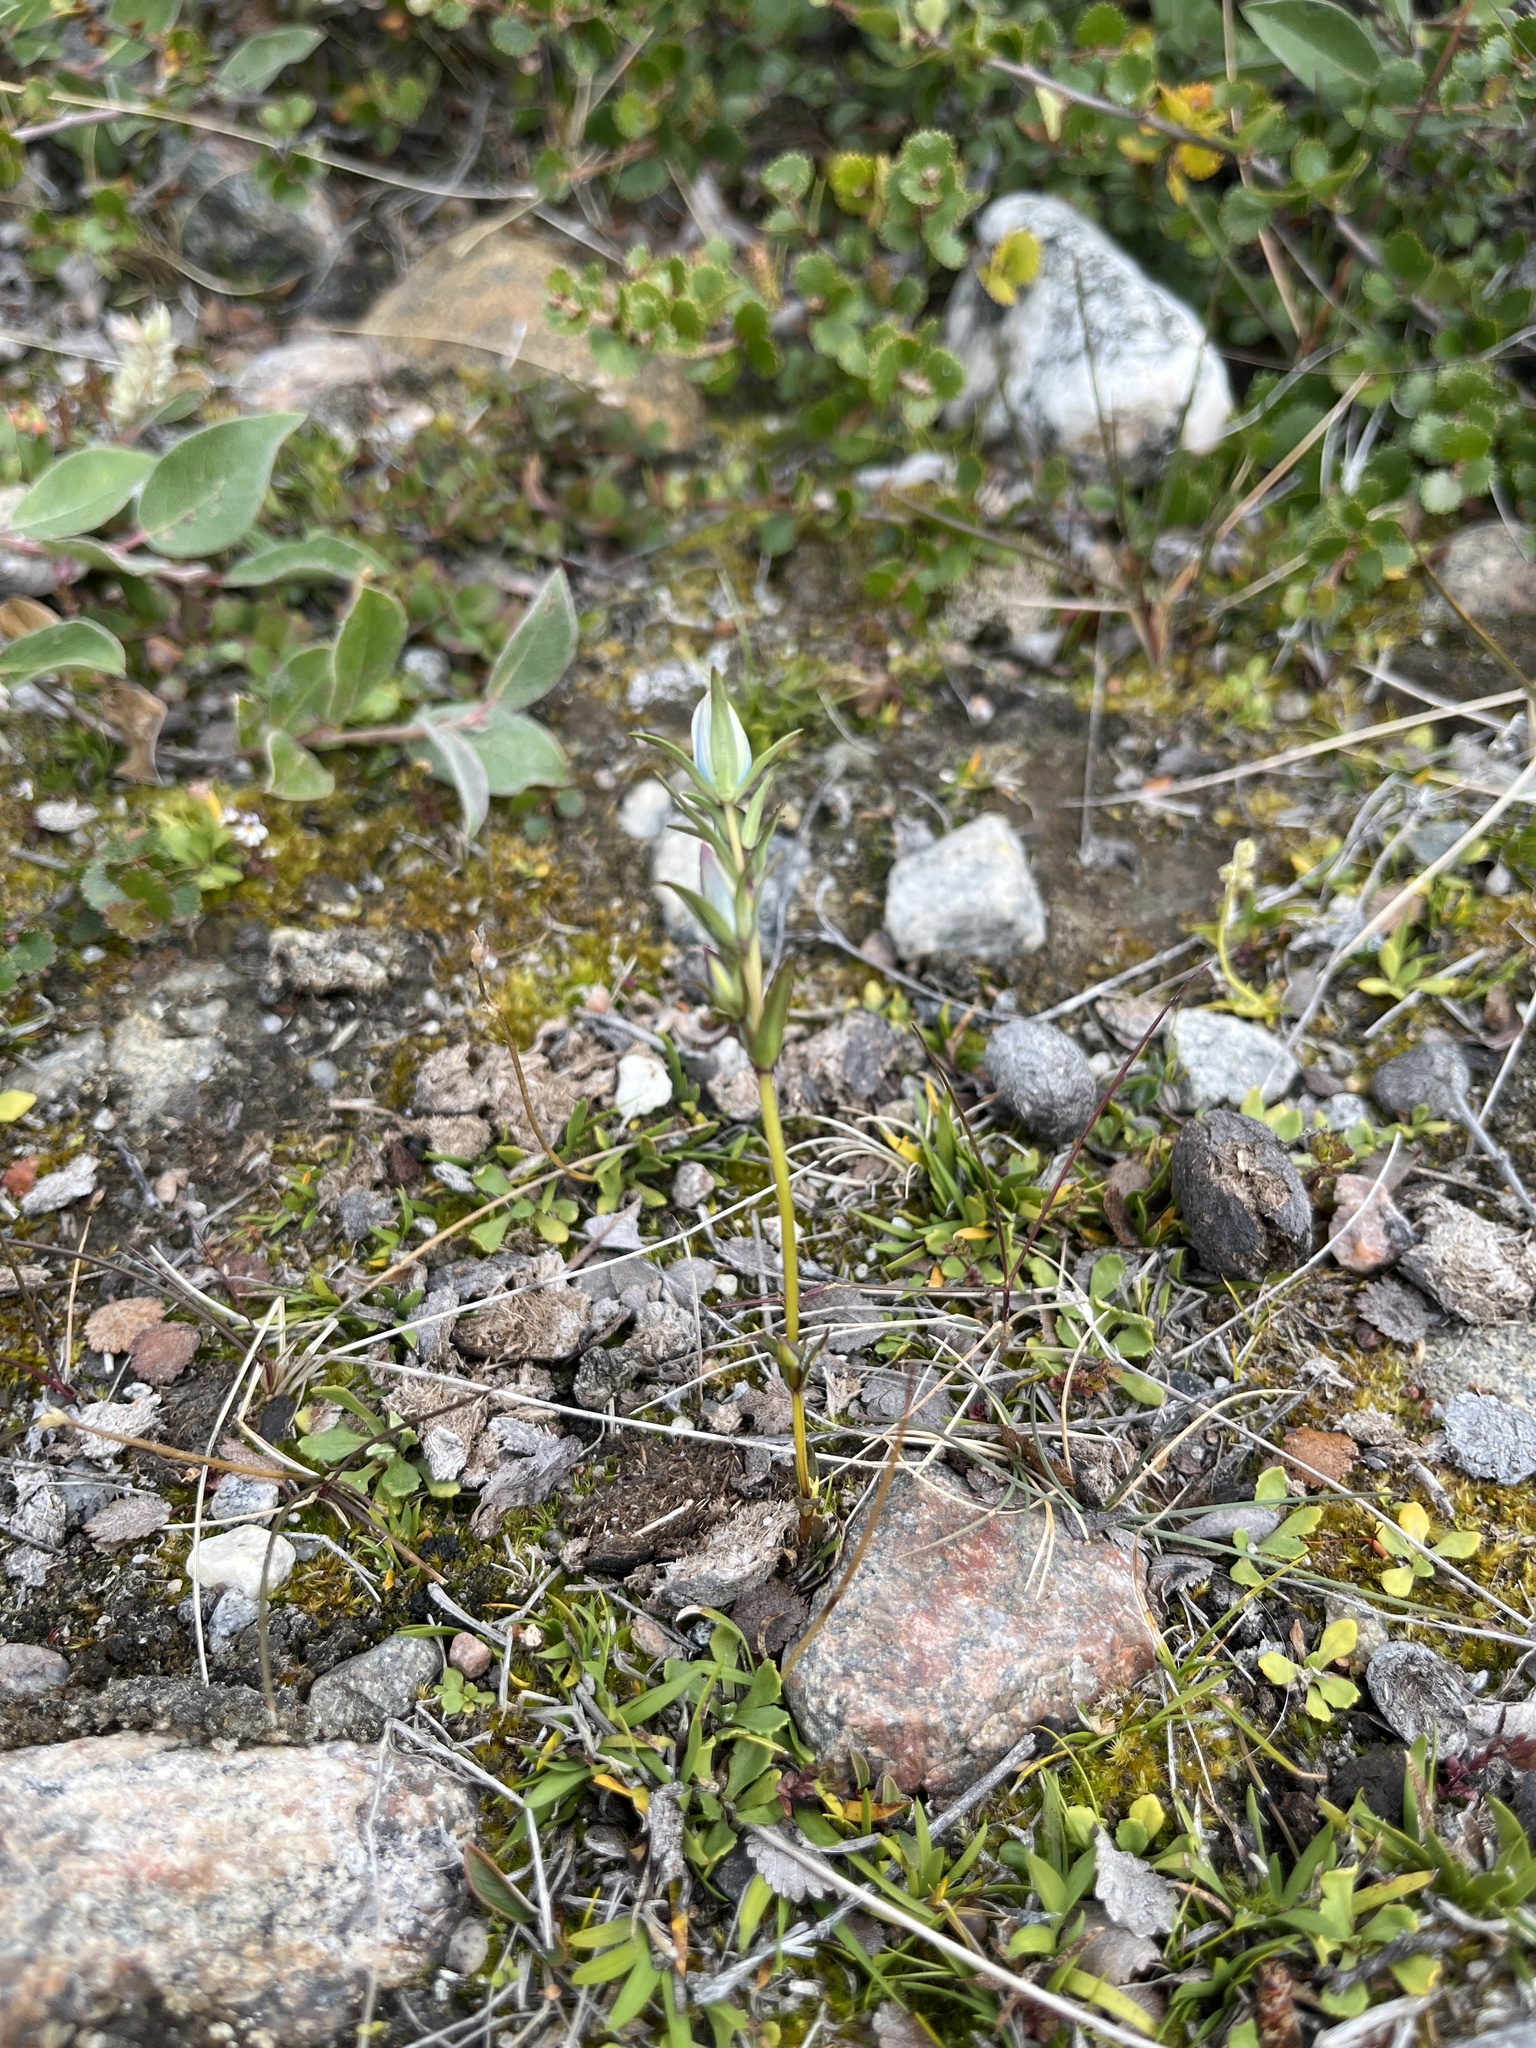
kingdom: Plantae
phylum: Tracheophyta
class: Magnoliopsida
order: Gentianales
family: Gentianaceae
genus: Lomatogonium
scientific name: Lomatogonium rotatum
